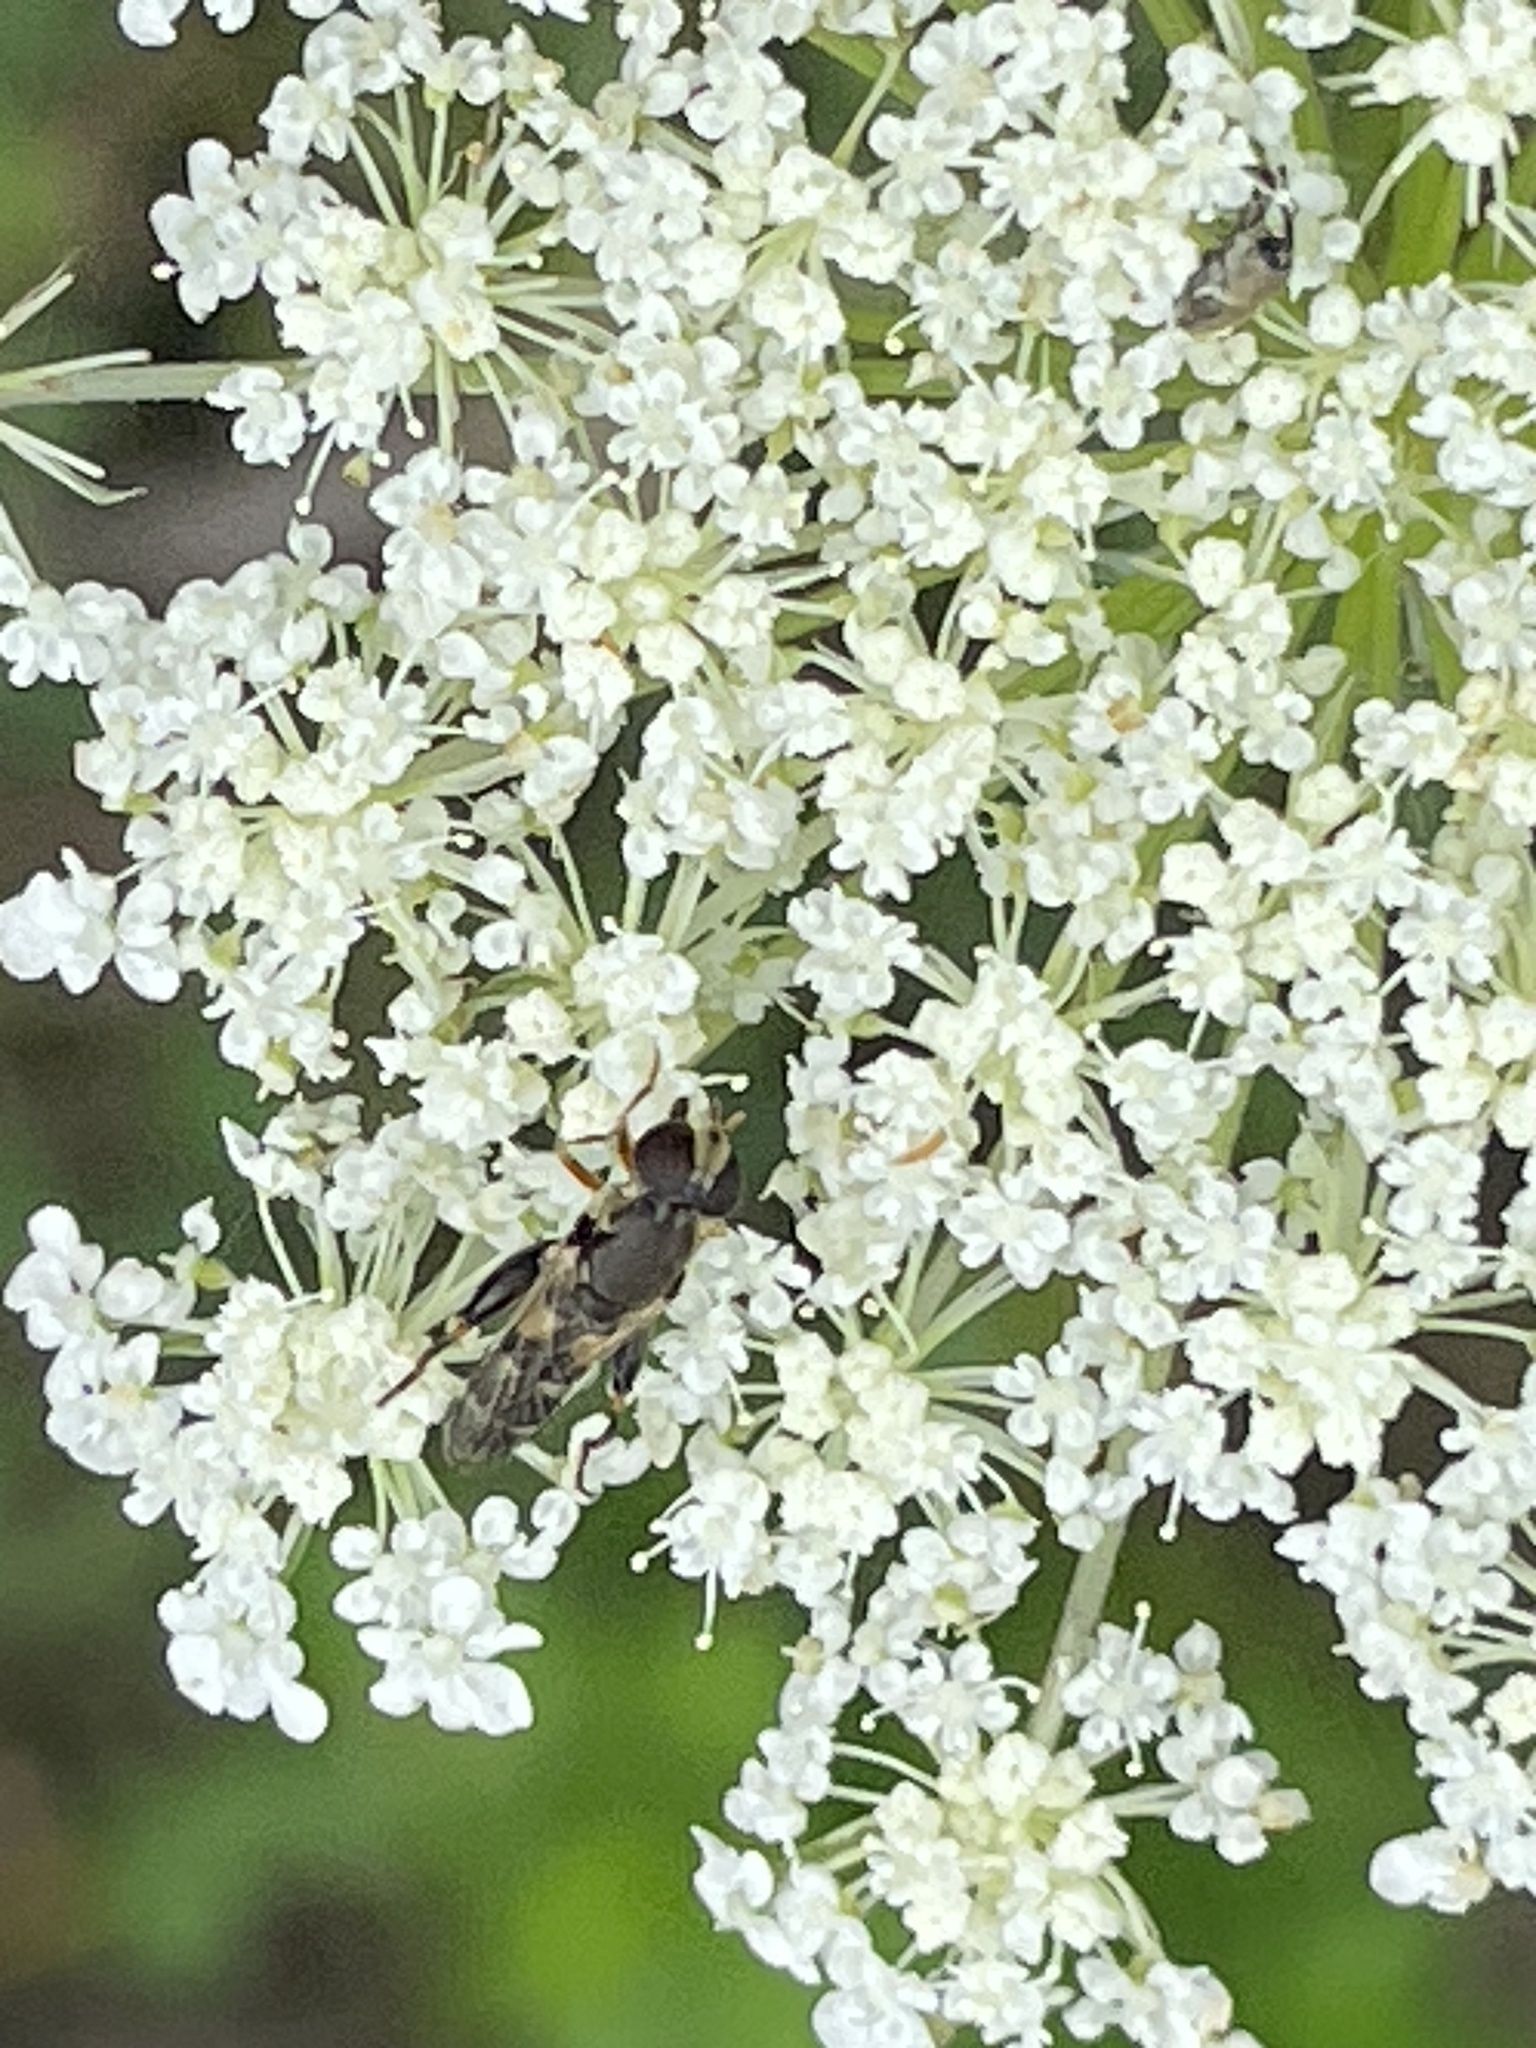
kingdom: Animalia
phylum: Arthropoda
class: Insecta
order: Diptera
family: Syrphidae
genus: Syritta
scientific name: Syritta pipiens
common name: Hover fly
